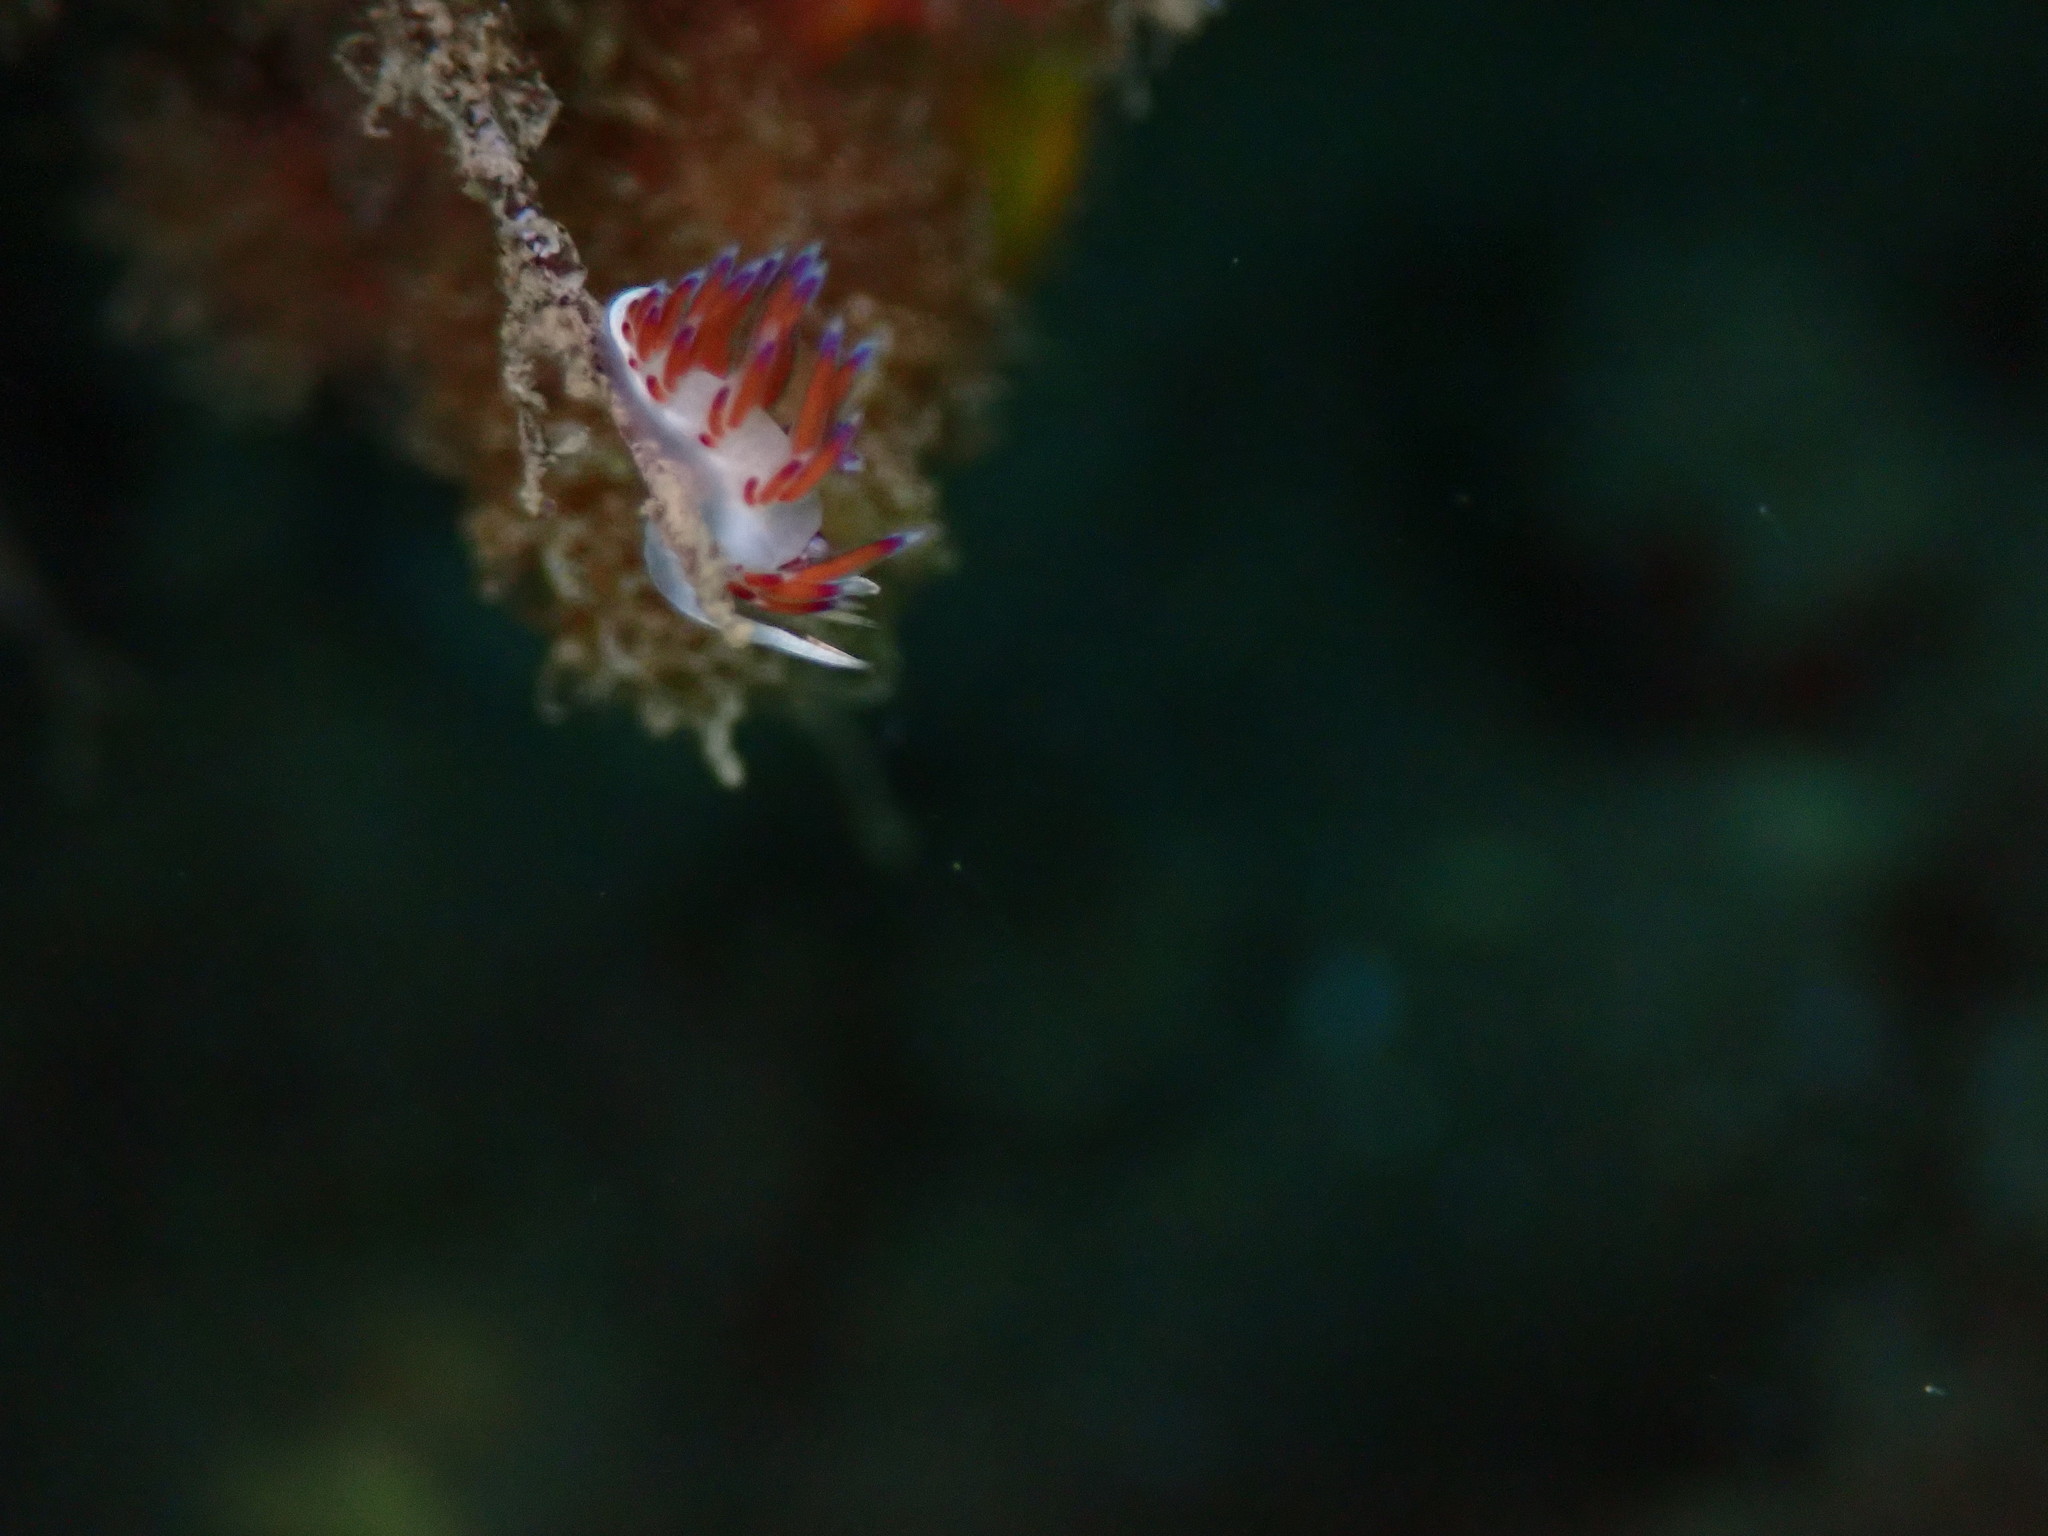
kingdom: Animalia
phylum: Mollusca
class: Gastropoda
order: Nudibranchia
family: Facelinidae
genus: Cratena
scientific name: Cratena peregrina
